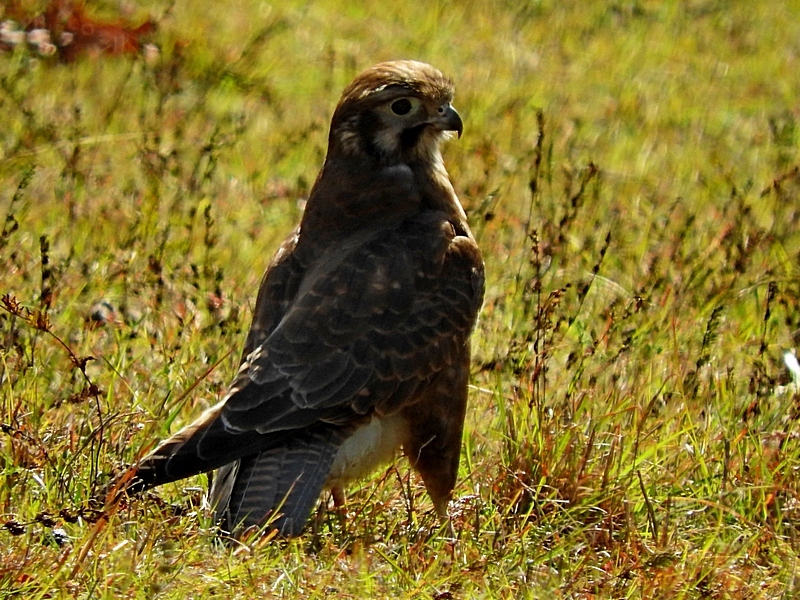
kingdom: Animalia
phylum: Chordata
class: Aves
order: Falconiformes
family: Falconidae
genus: Falco
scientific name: Falco berigora
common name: Brown falcon
